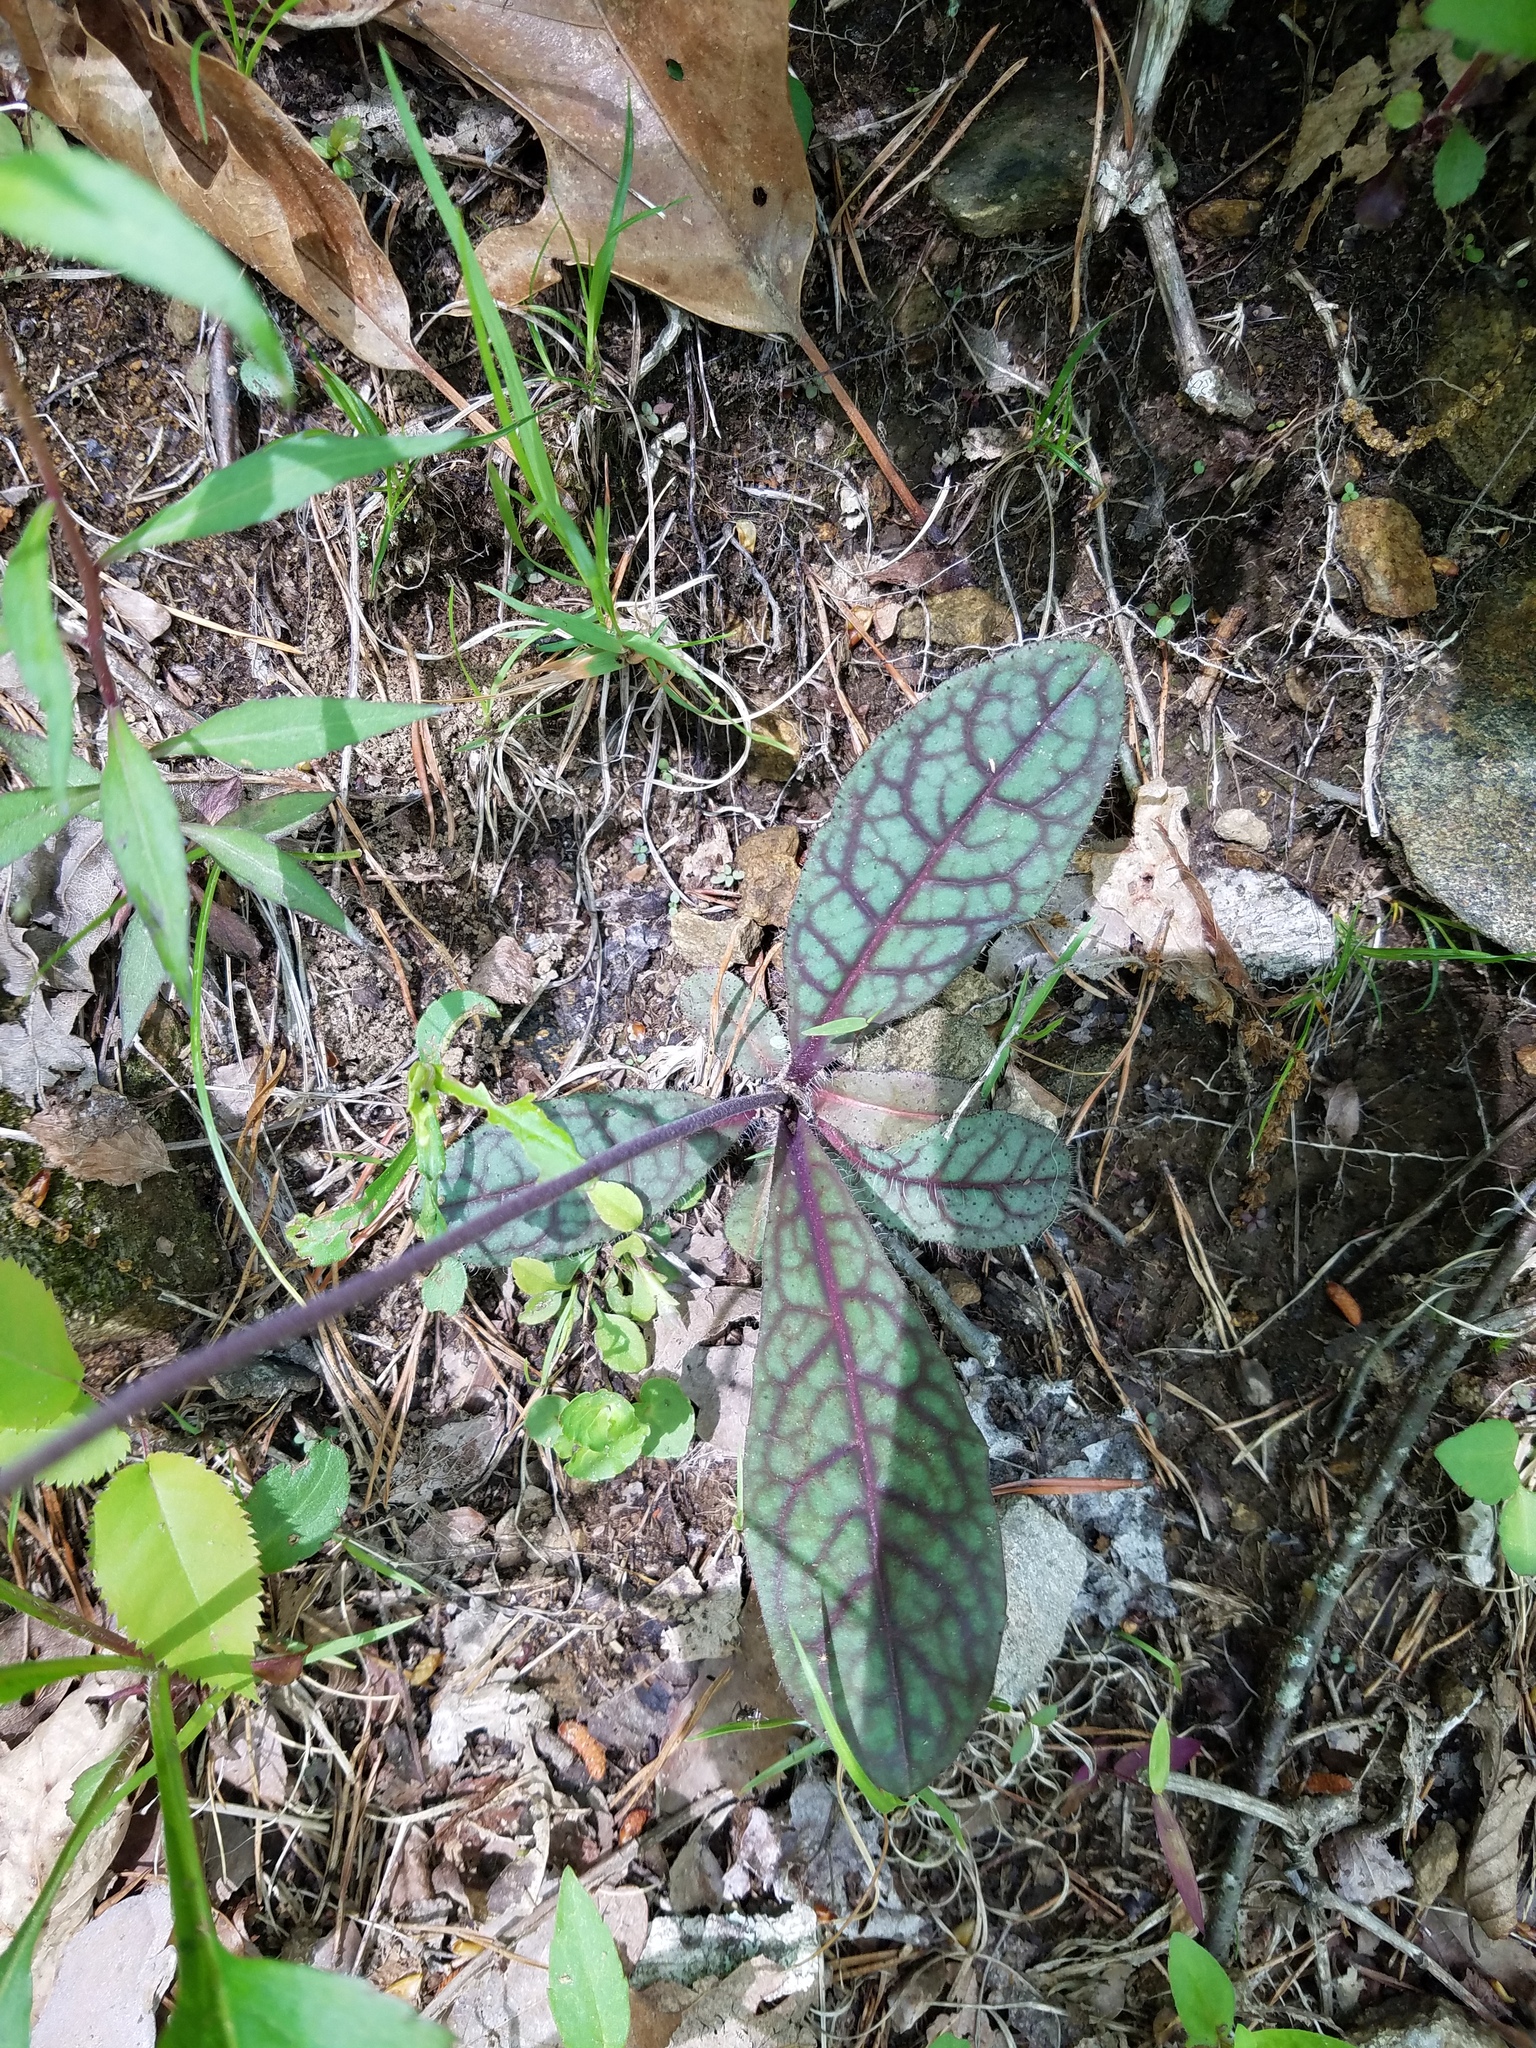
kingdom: Plantae
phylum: Tracheophyta
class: Magnoliopsida
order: Asterales
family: Asteraceae
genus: Hieracium
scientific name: Hieracium venosum
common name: Rattlesnake hawkweed
